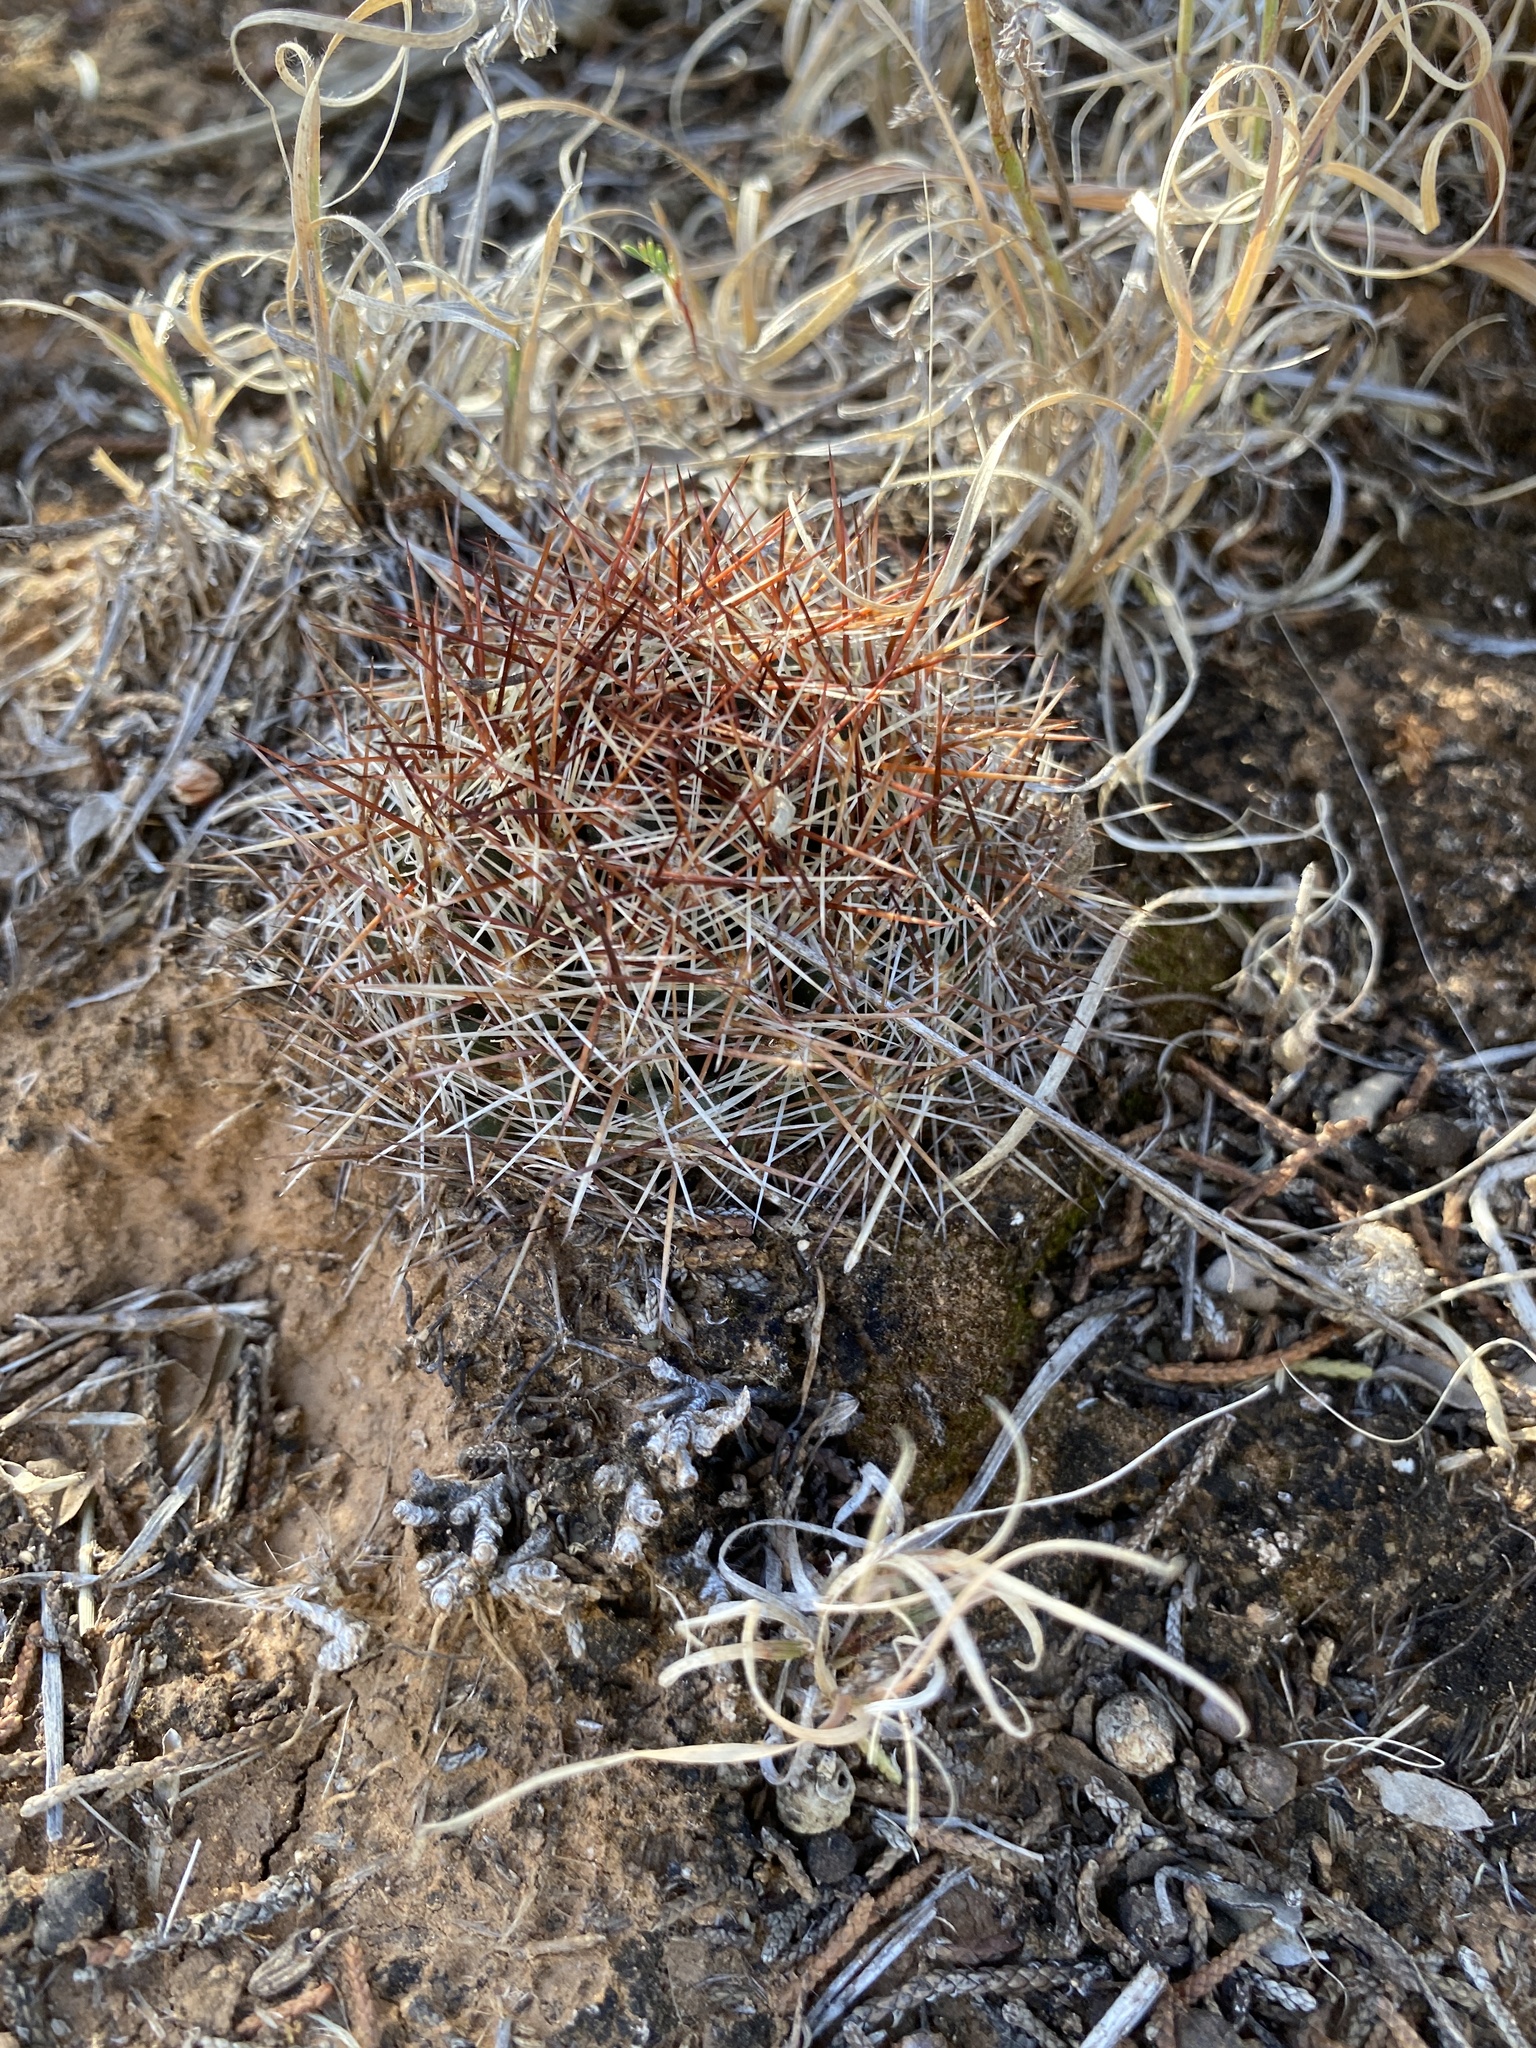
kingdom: Plantae
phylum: Tracheophyta
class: Magnoliopsida
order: Caryophyllales
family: Cactaceae
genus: Pelecyphora
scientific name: Pelecyphora vivipara
